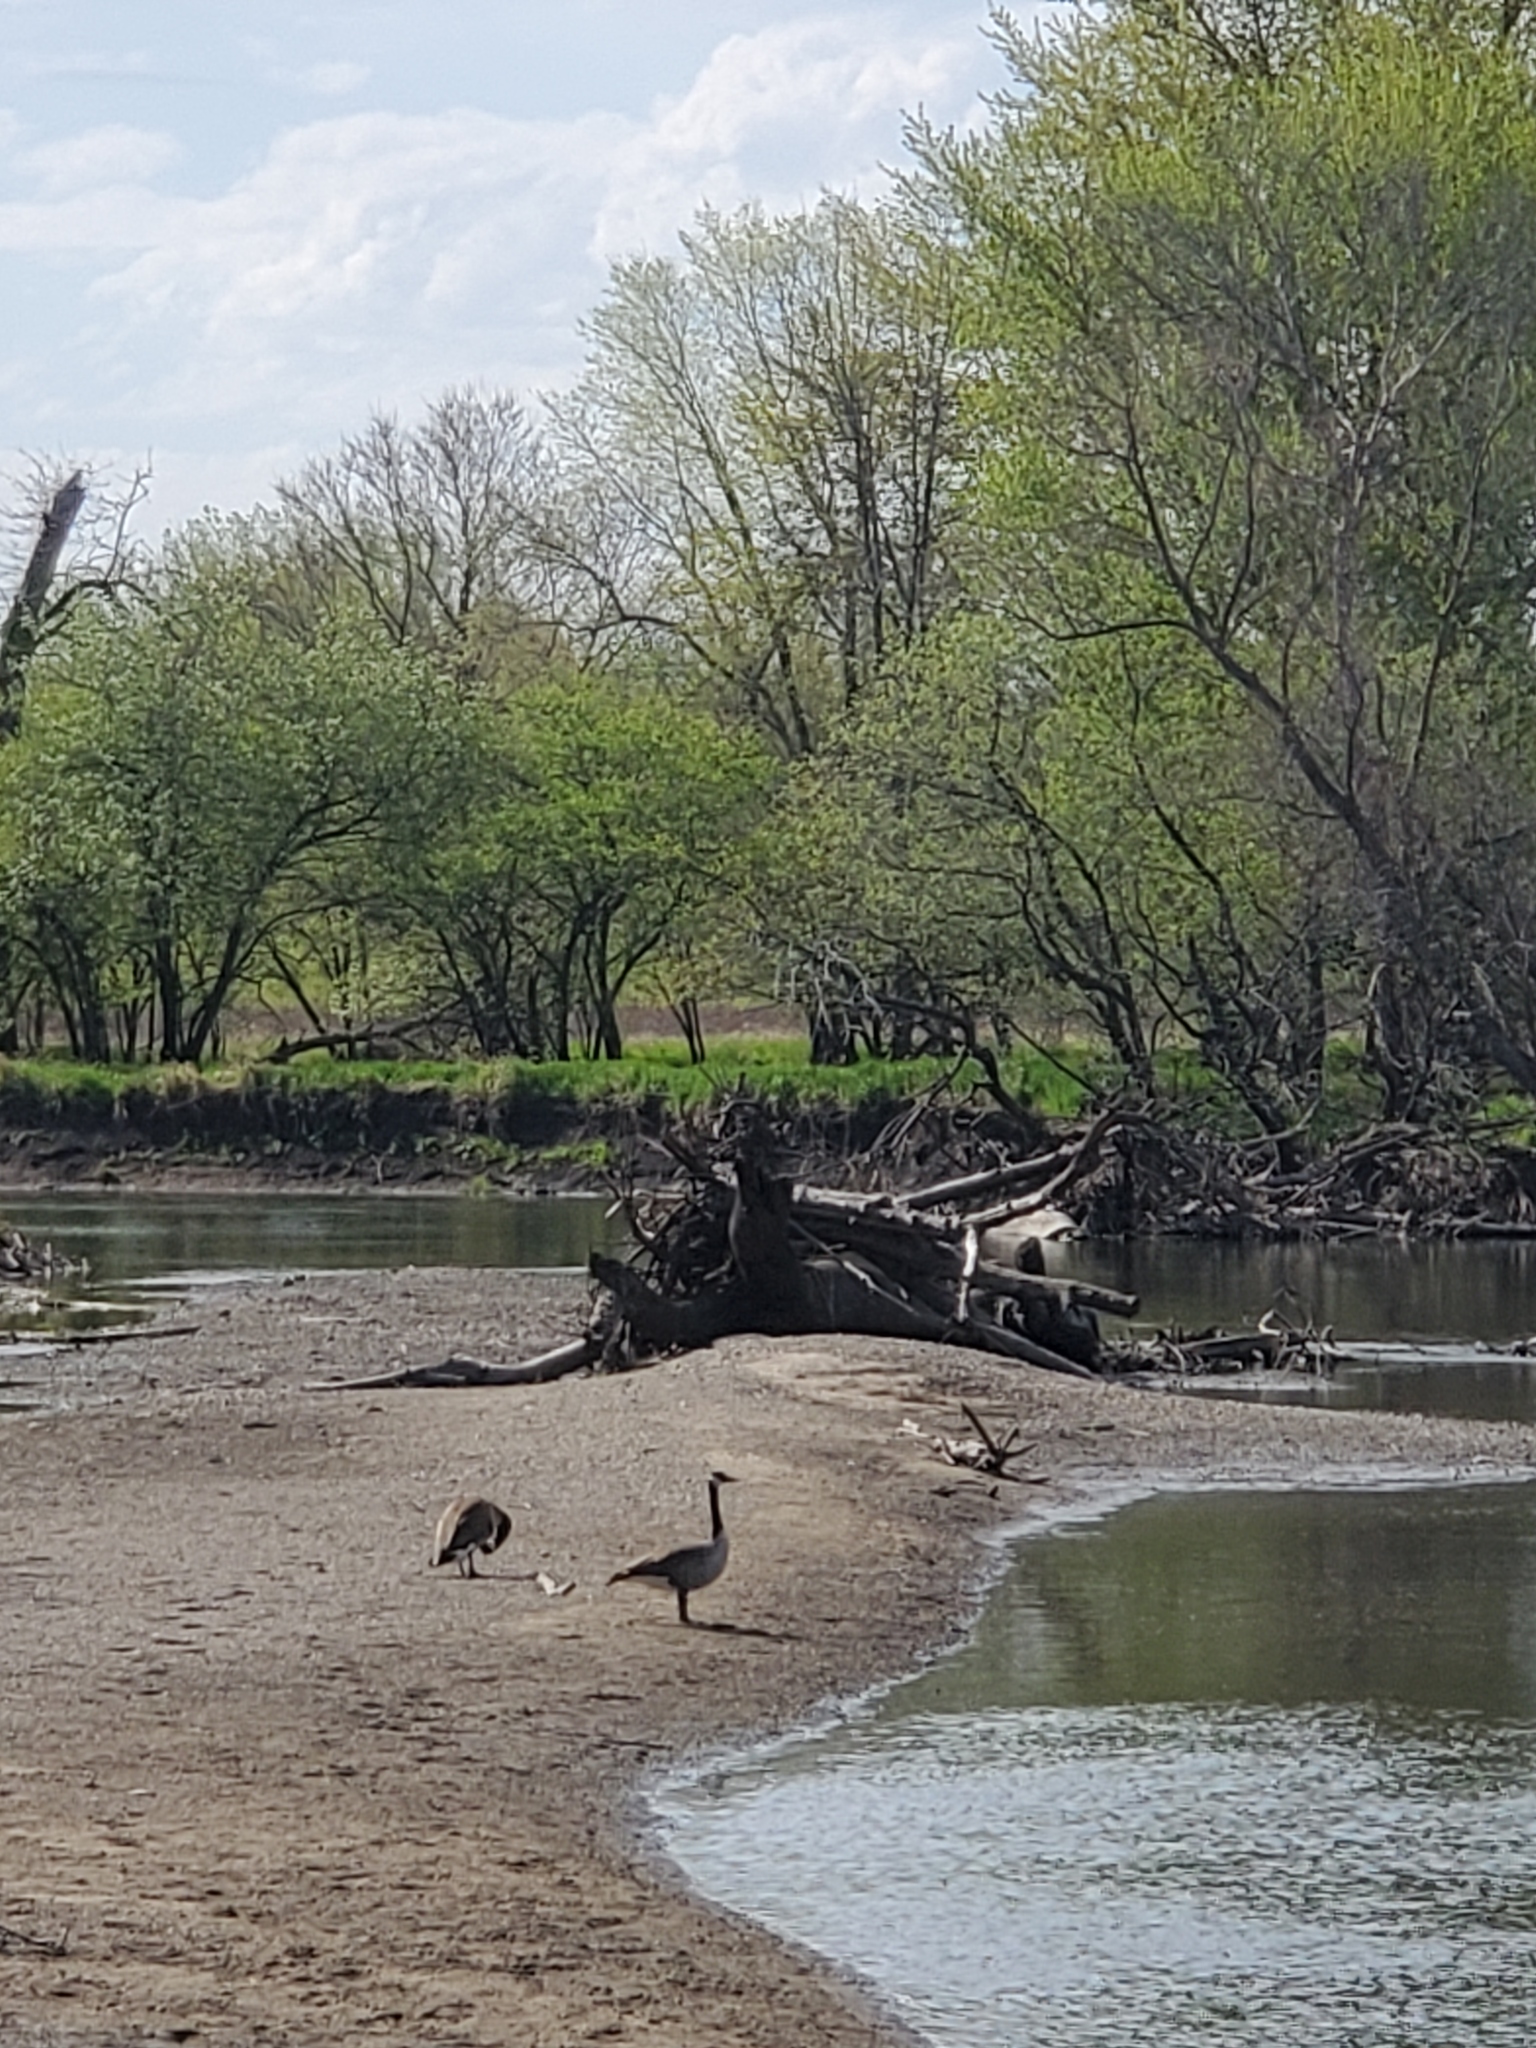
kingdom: Animalia
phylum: Chordata
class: Aves
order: Anseriformes
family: Anatidae
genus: Branta
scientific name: Branta canadensis
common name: Canada goose
